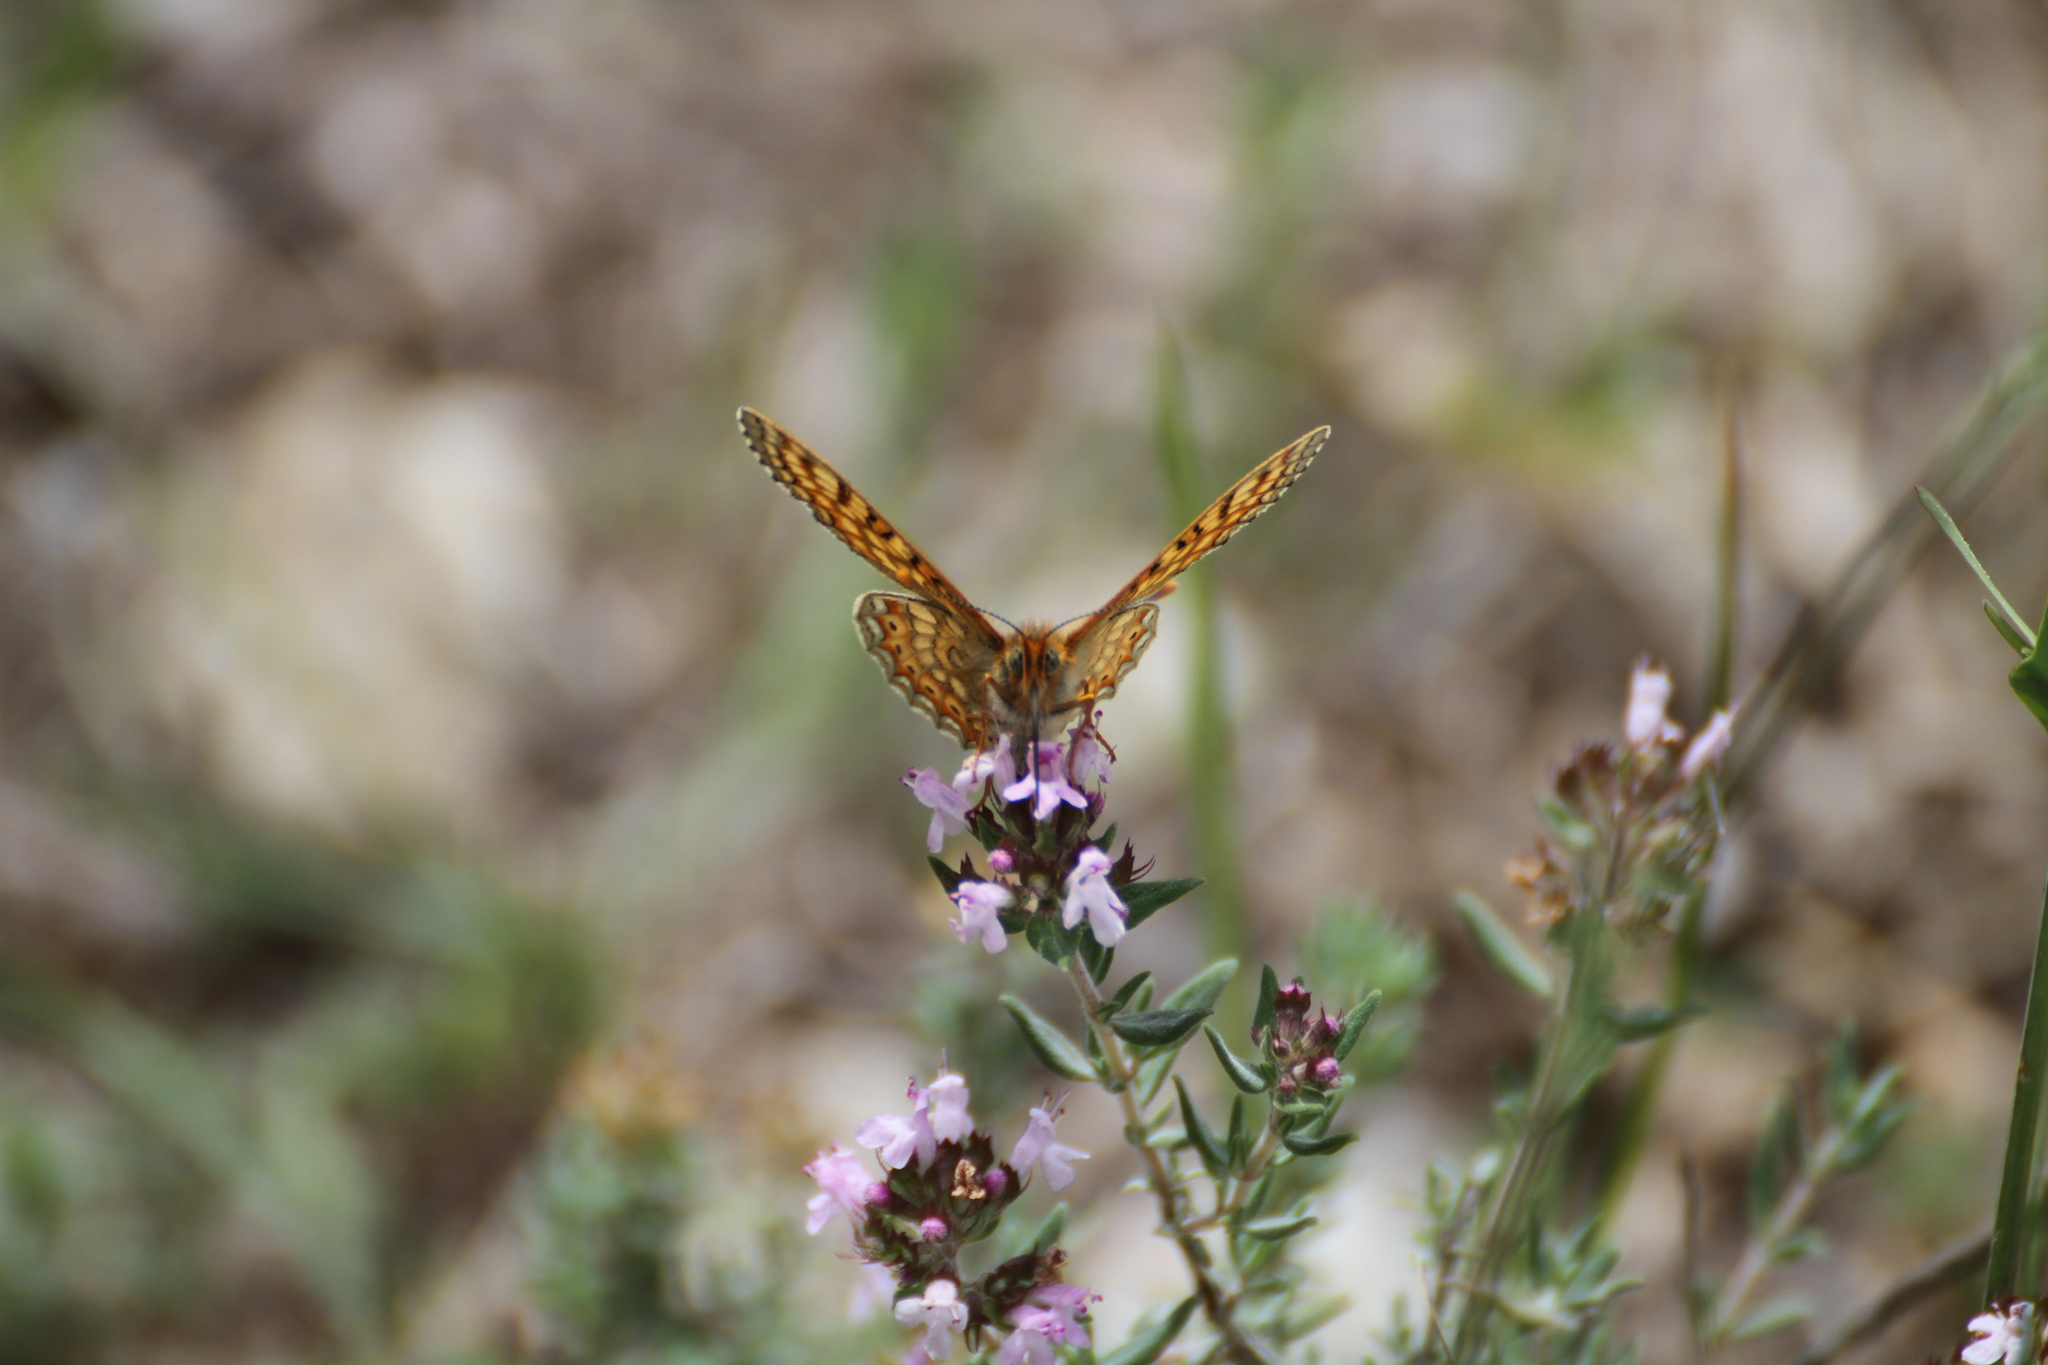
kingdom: Animalia
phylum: Arthropoda
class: Insecta
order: Lepidoptera
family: Nymphalidae
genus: Euphydryas
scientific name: Euphydryas aurinia
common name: Marsh fritillary
